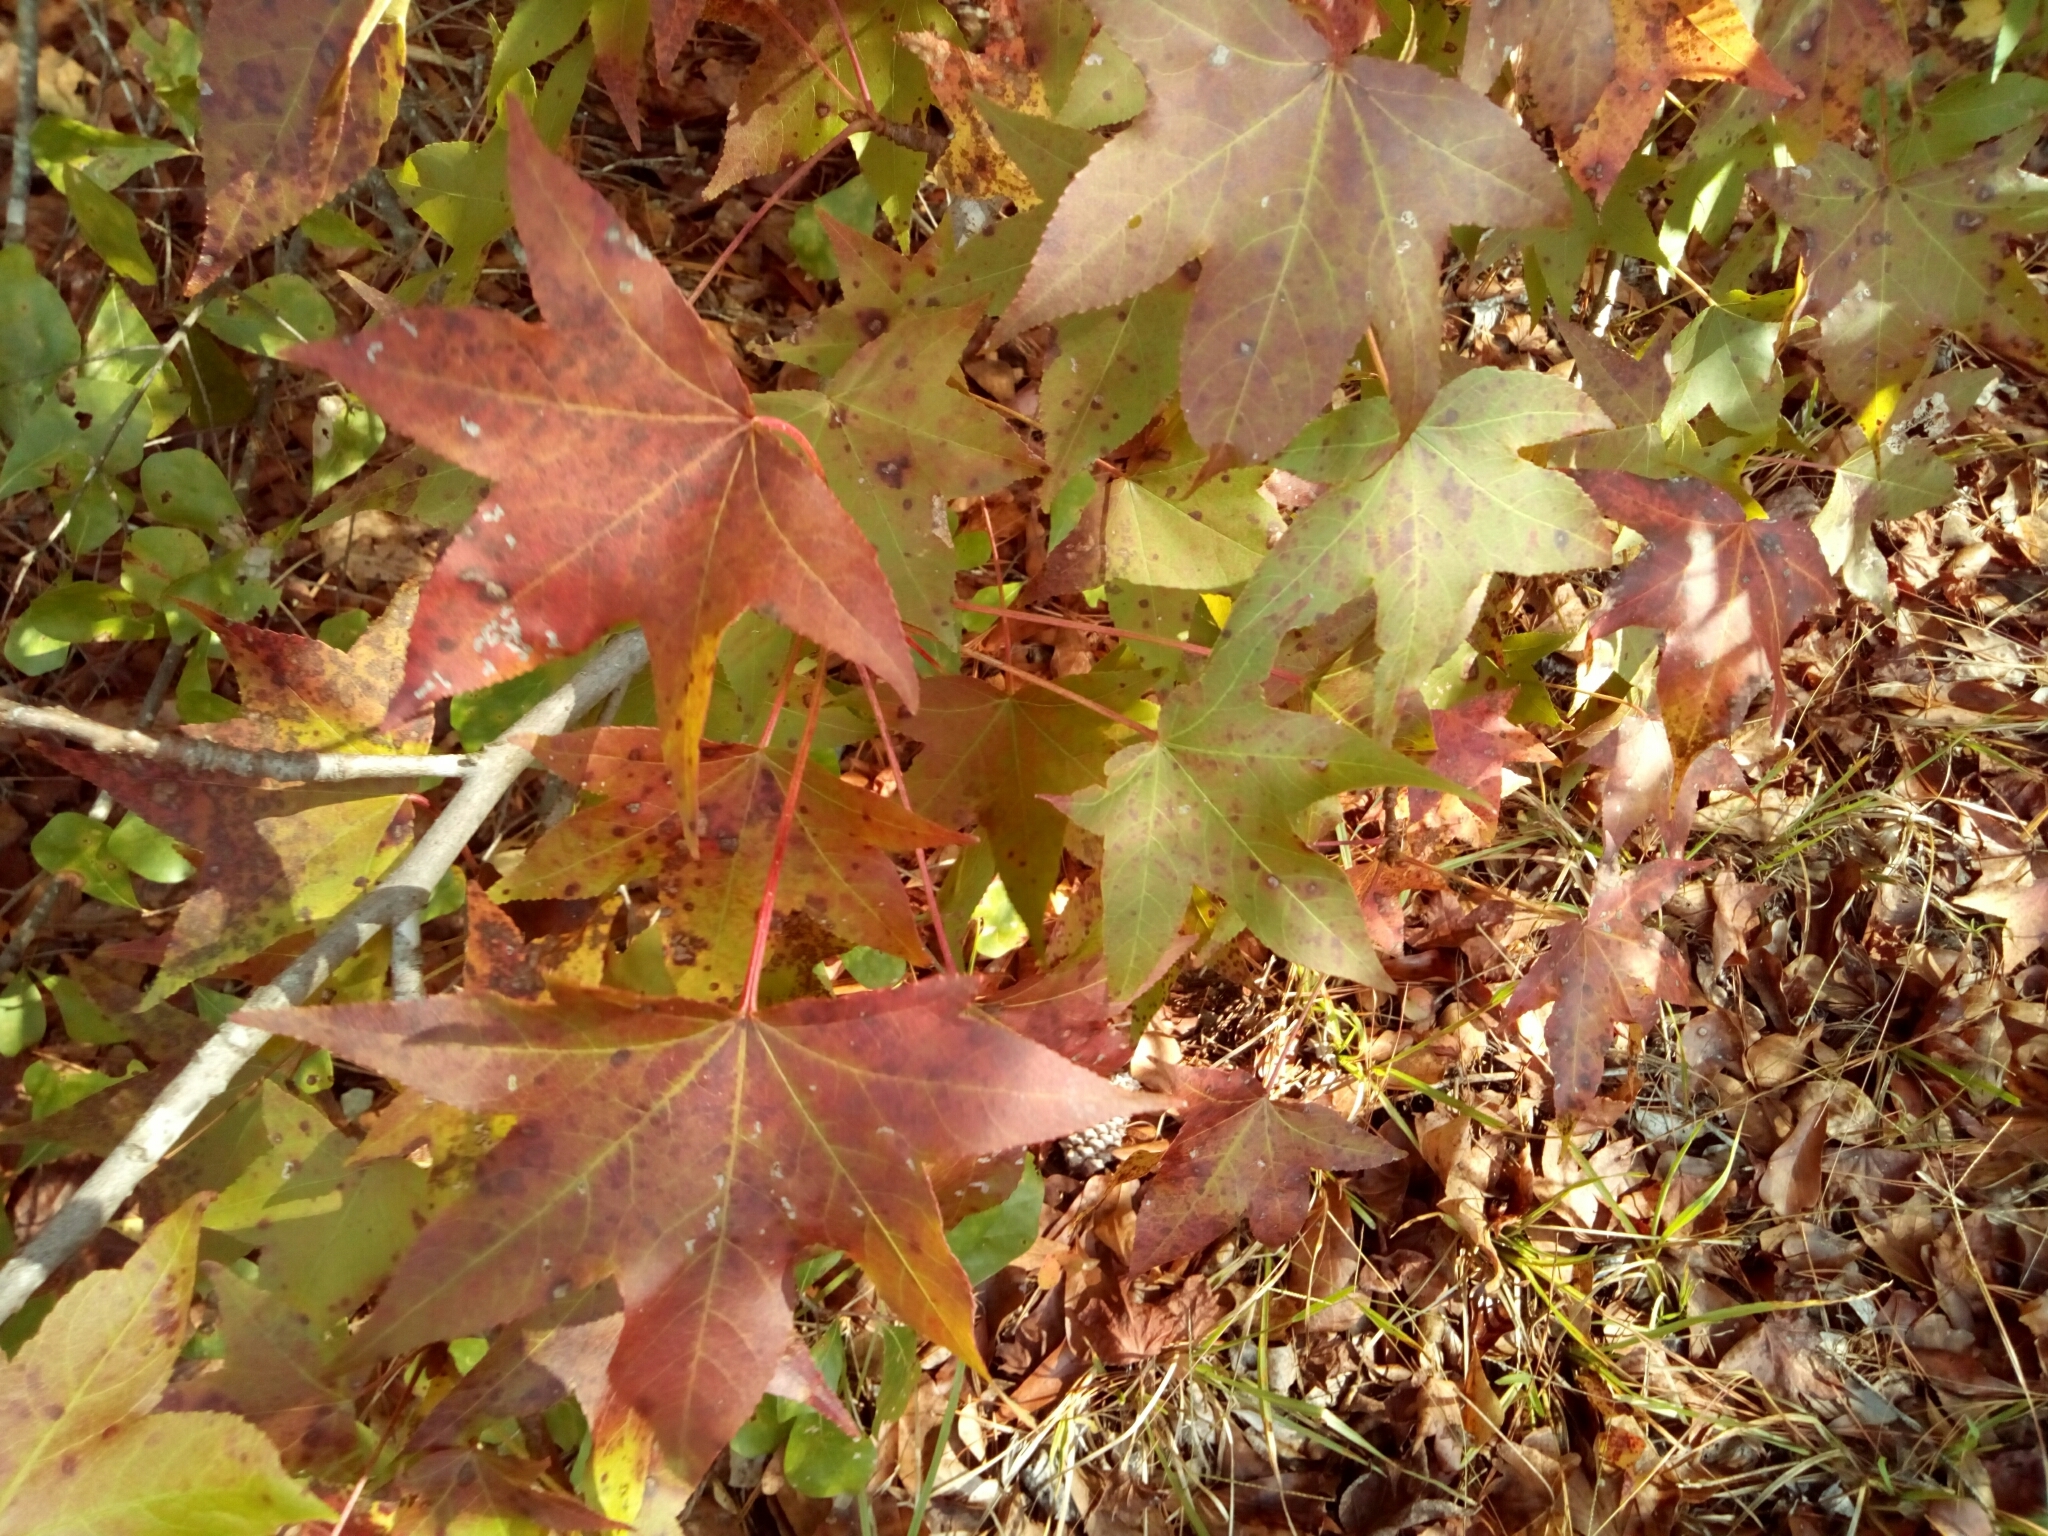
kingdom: Plantae
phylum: Tracheophyta
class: Magnoliopsida
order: Saxifragales
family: Altingiaceae
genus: Liquidambar
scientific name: Liquidambar styraciflua
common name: Sweet gum
